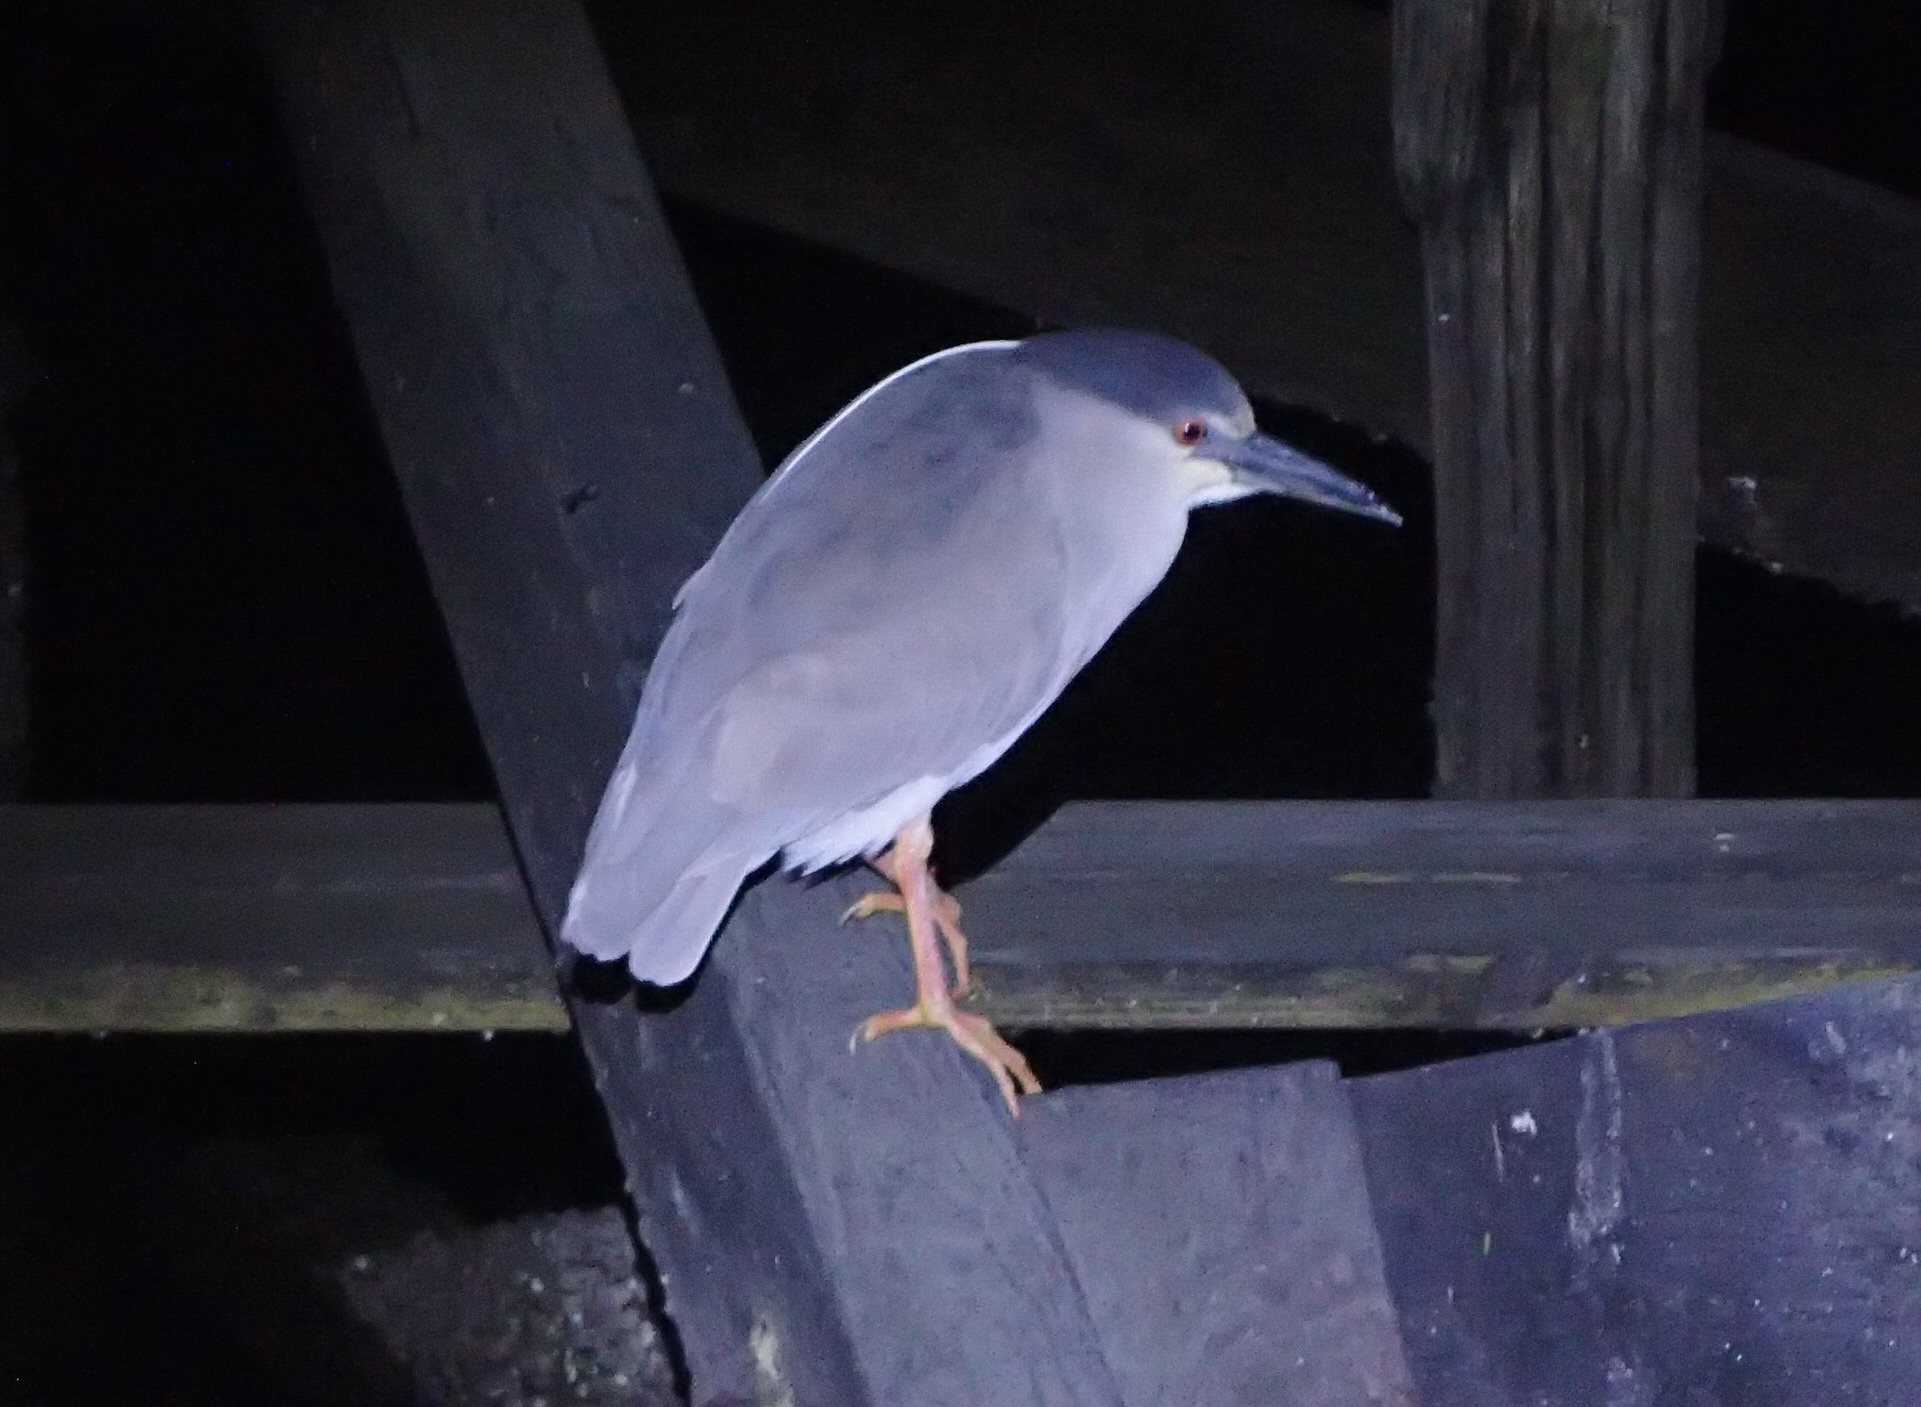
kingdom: Animalia
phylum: Chordata
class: Aves
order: Pelecaniformes
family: Ardeidae
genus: Nycticorax
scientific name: Nycticorax nycticorax
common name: Black-crowned night heron
